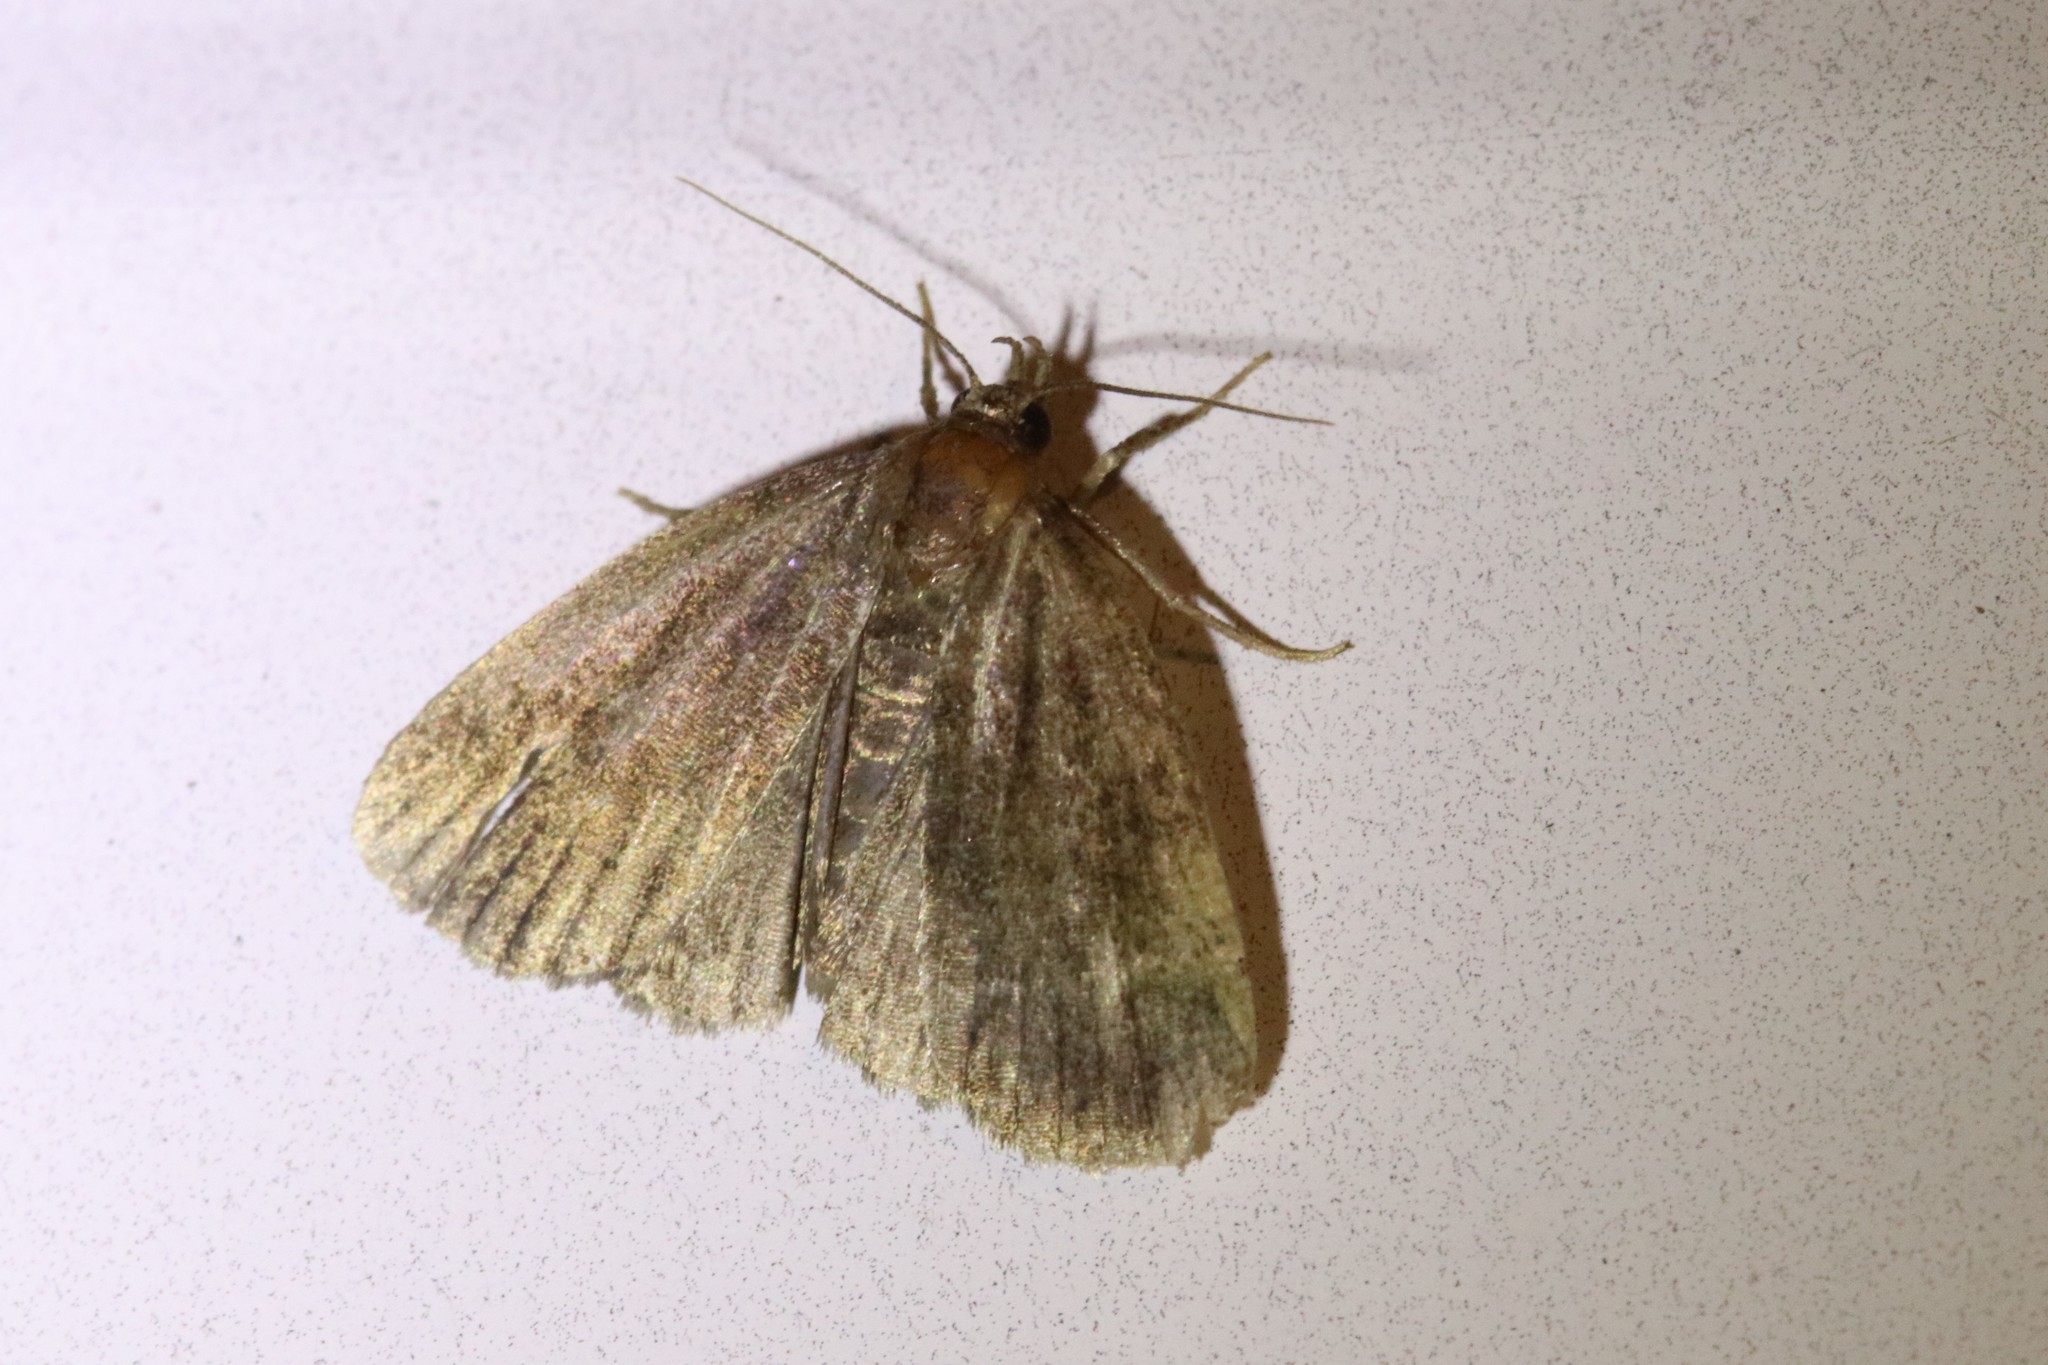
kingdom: Animalia
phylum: Arthropoda
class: Insecta
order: Lepidoptera
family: Erebidae
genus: Idia
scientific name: Idia rotundalis
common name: Rotund idia moth
